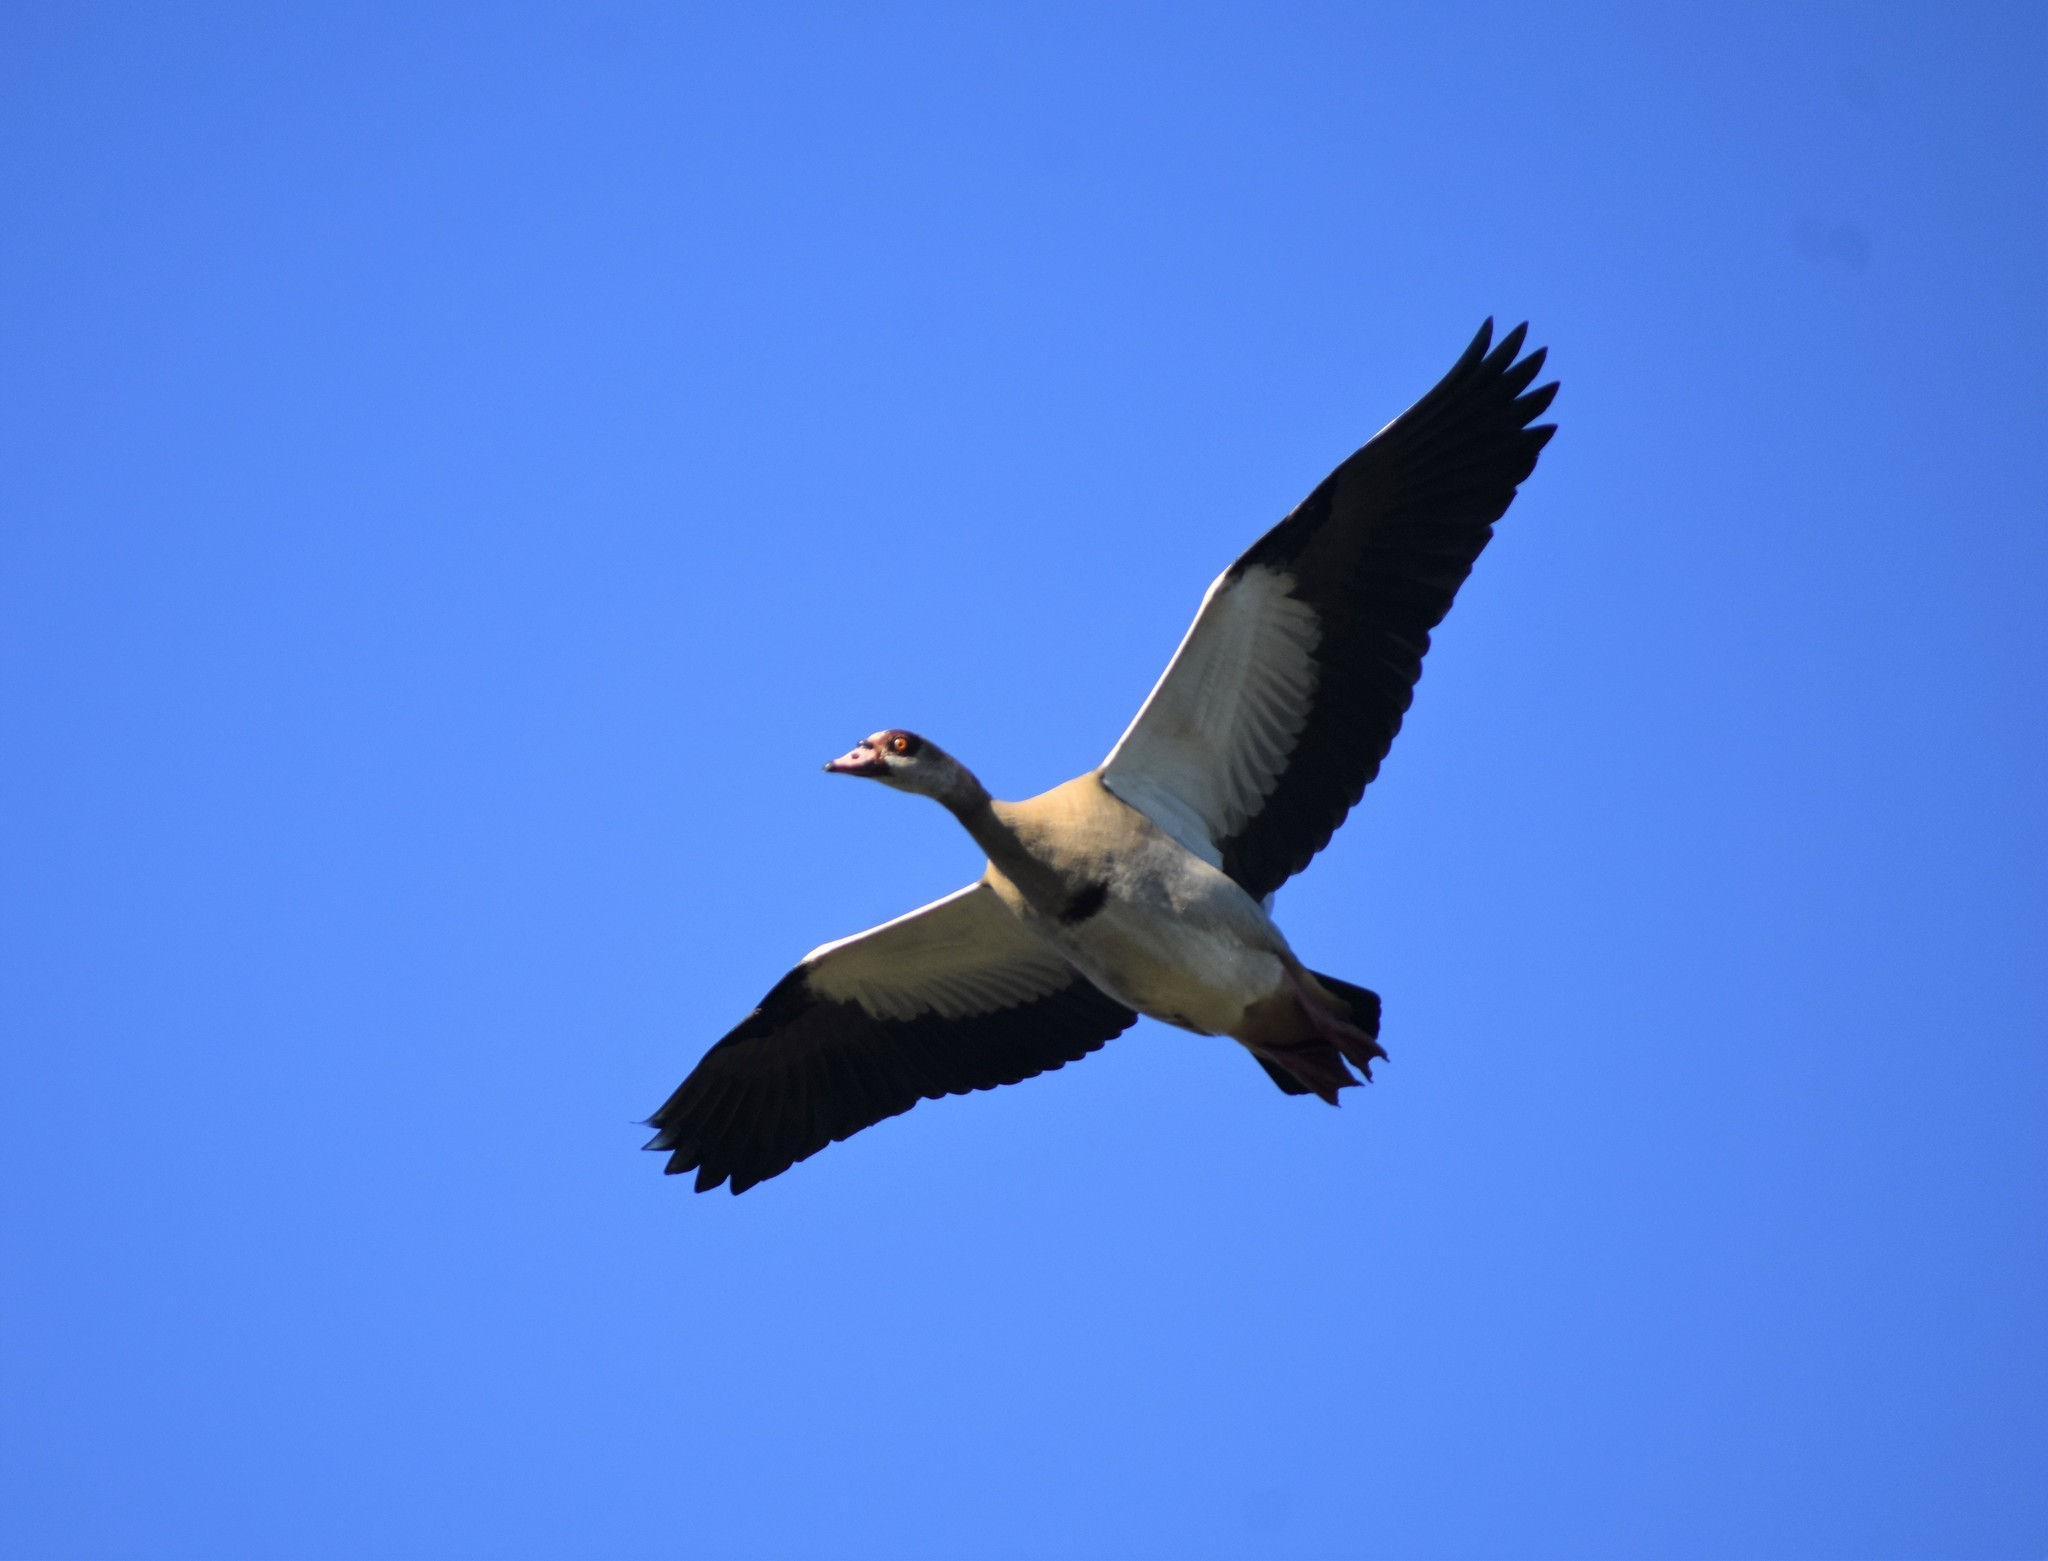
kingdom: Animalia
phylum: Chordata
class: Aves
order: Anseriformes
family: Anatidae
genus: Alopochen
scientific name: Alopochen aegyptiaca
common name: Egyptian goose
